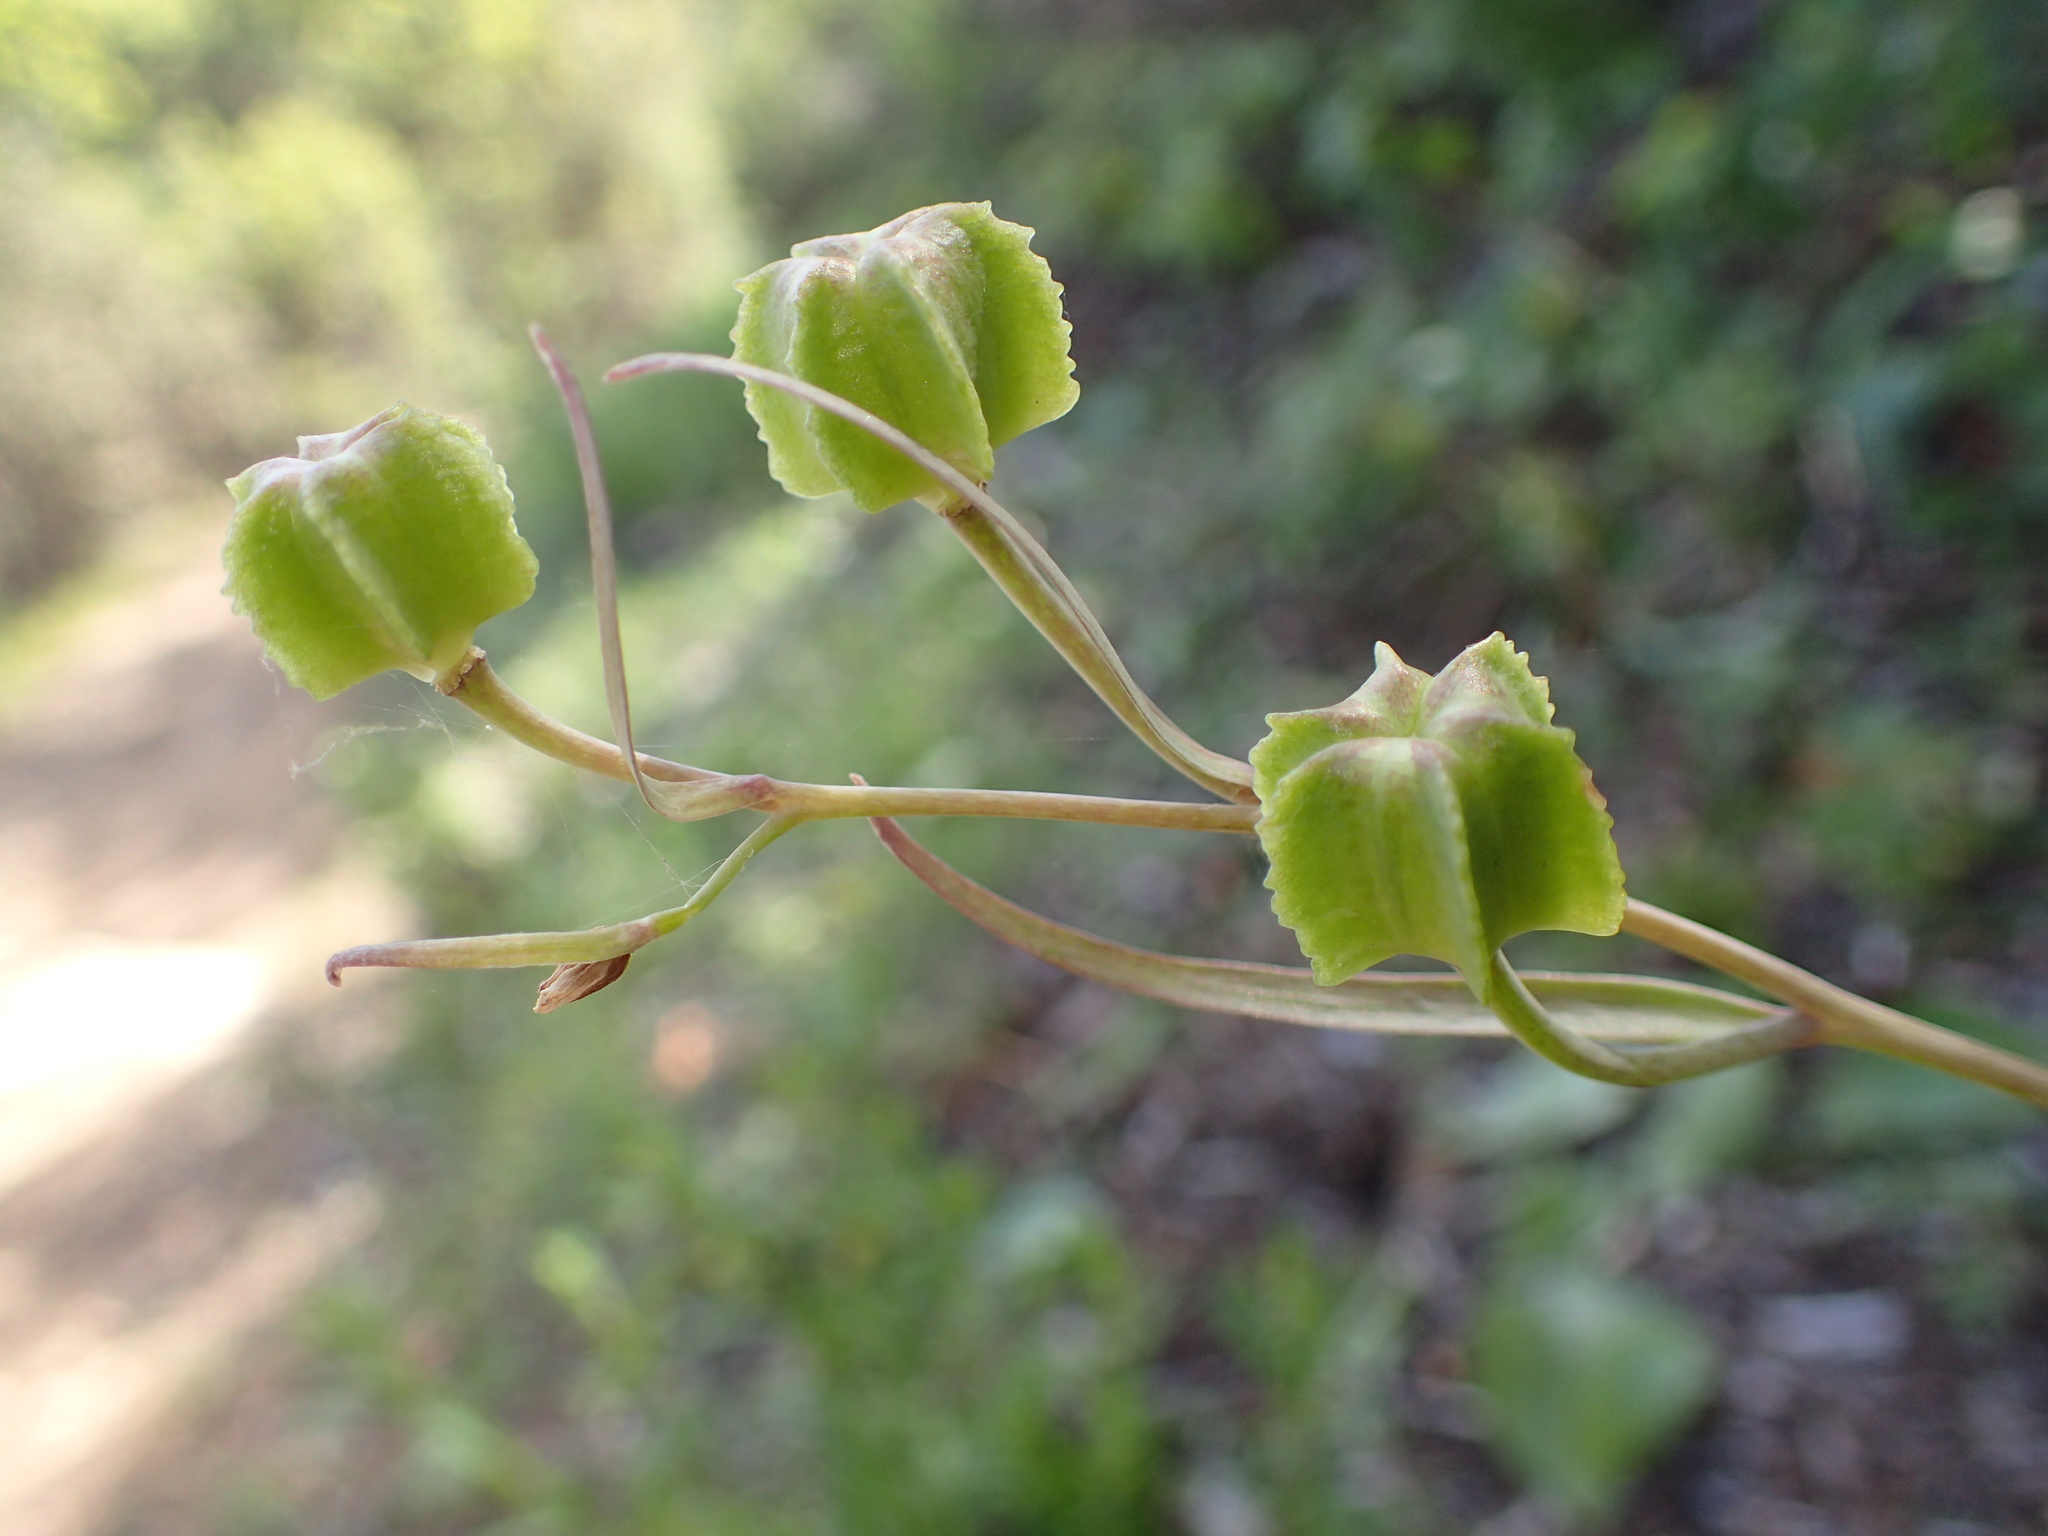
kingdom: Plantae
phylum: Tracheophyta
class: Liliopsida
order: Liliales
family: Liliaceae
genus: Fritillaria
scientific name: Fritillaria ojaiensis
